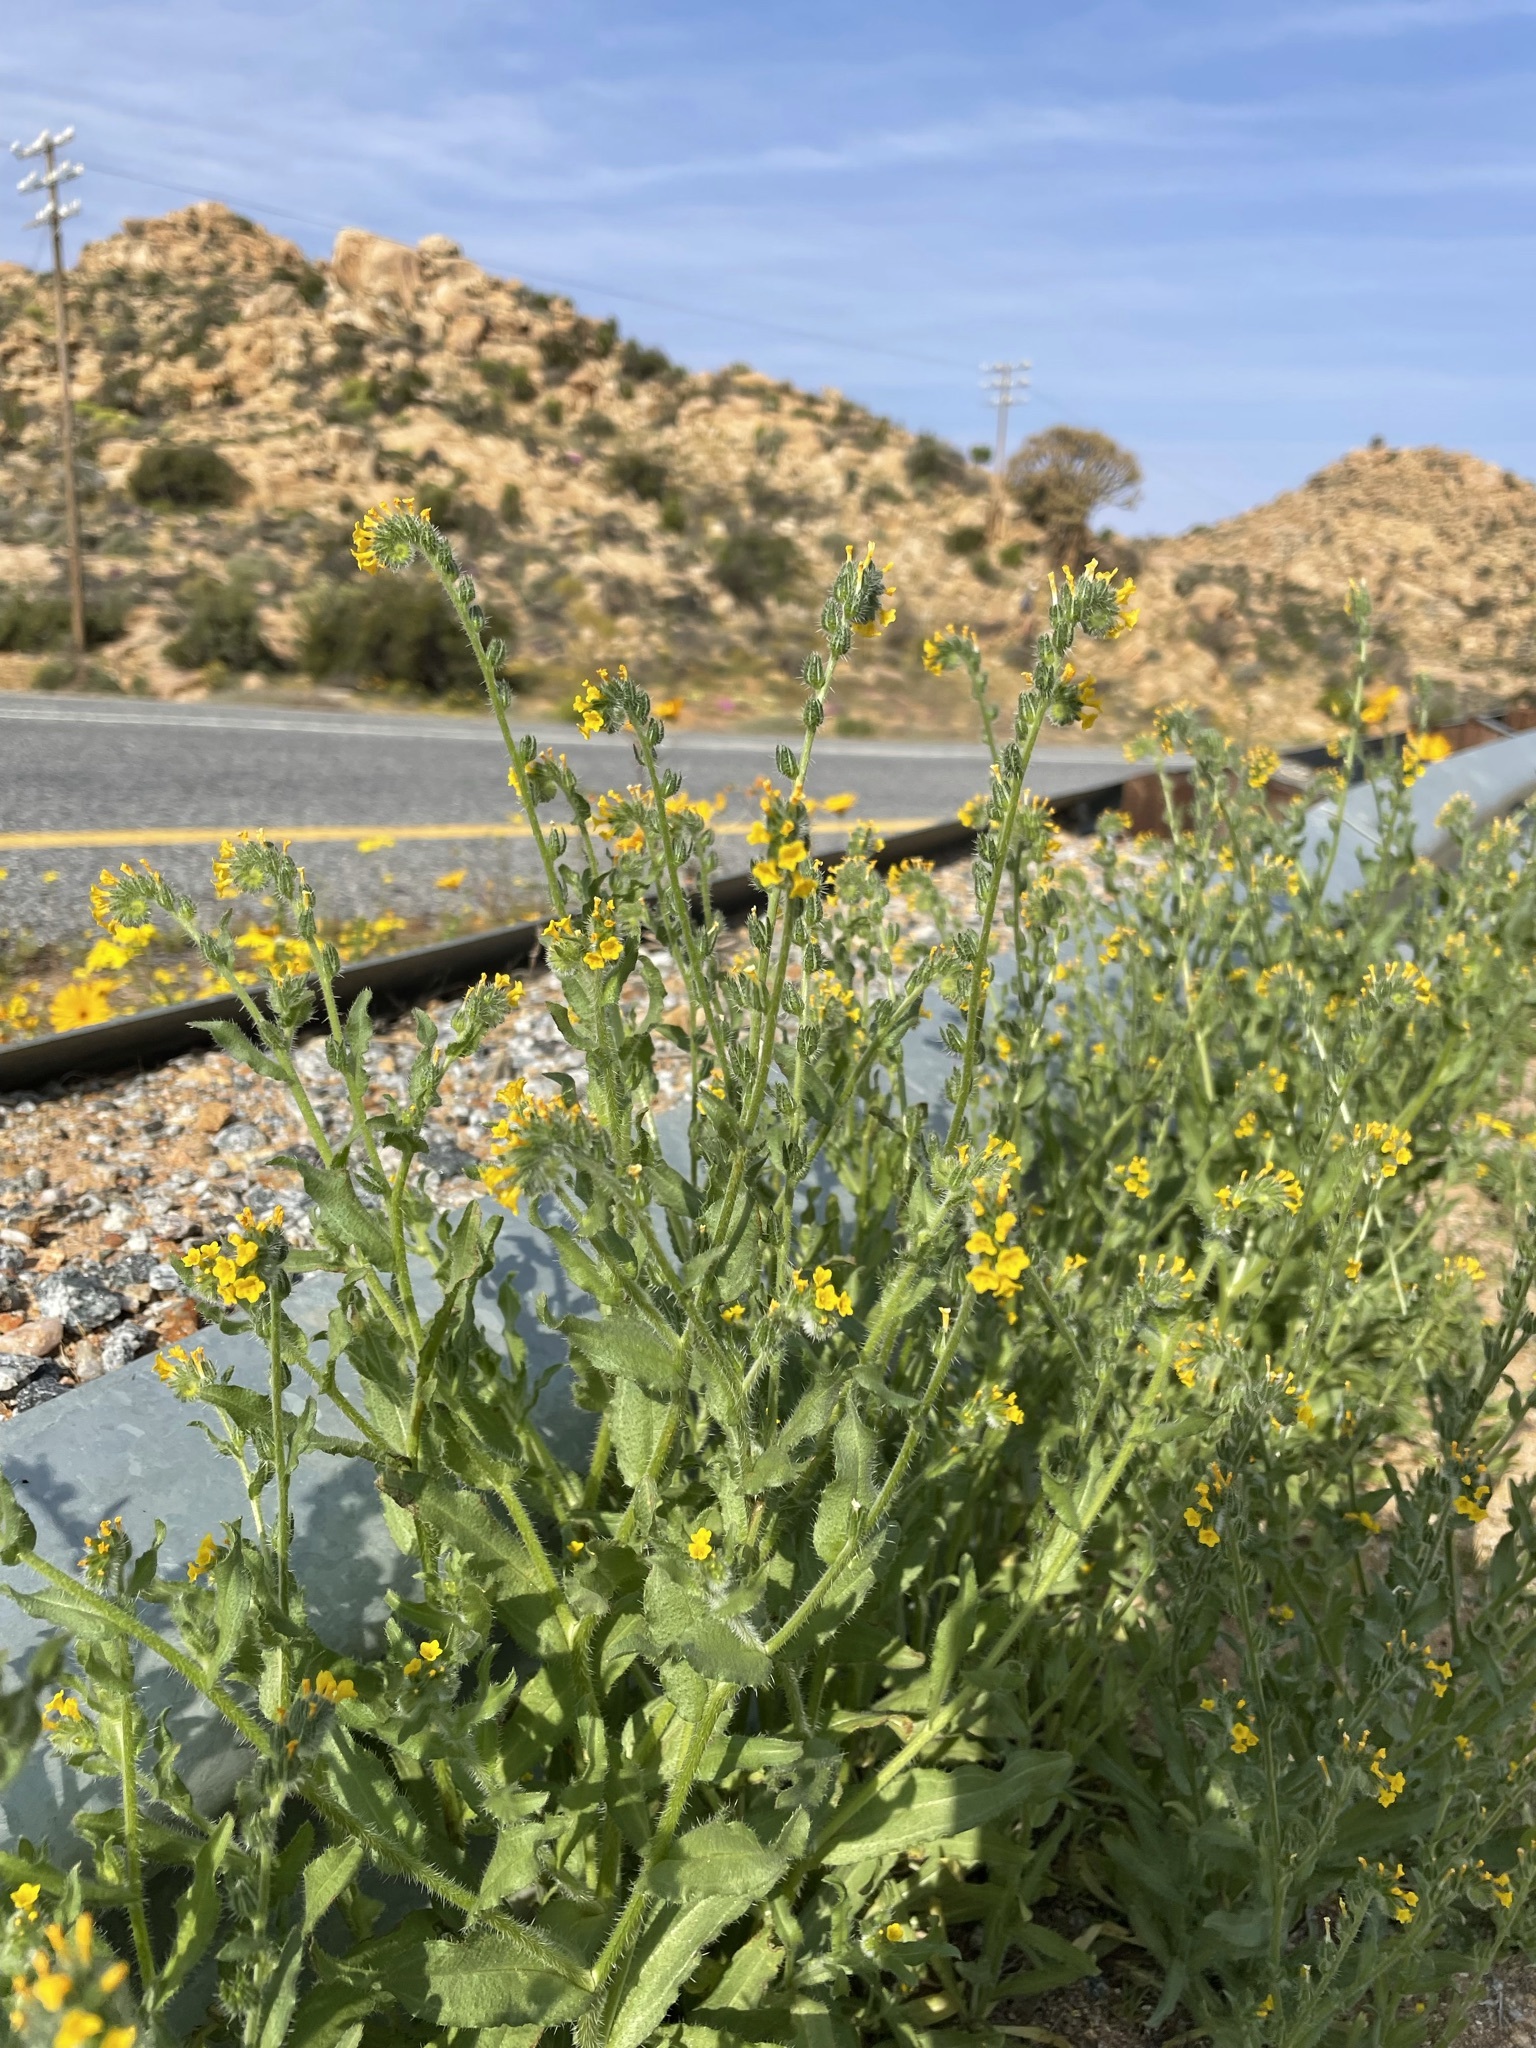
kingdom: Plantae
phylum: Tracheophyta
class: Magnoliopsida
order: Boraginales
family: Boraginaceae
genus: Amsinckia
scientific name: Amsinckia menziesii
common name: Menzies' fiddleneck
